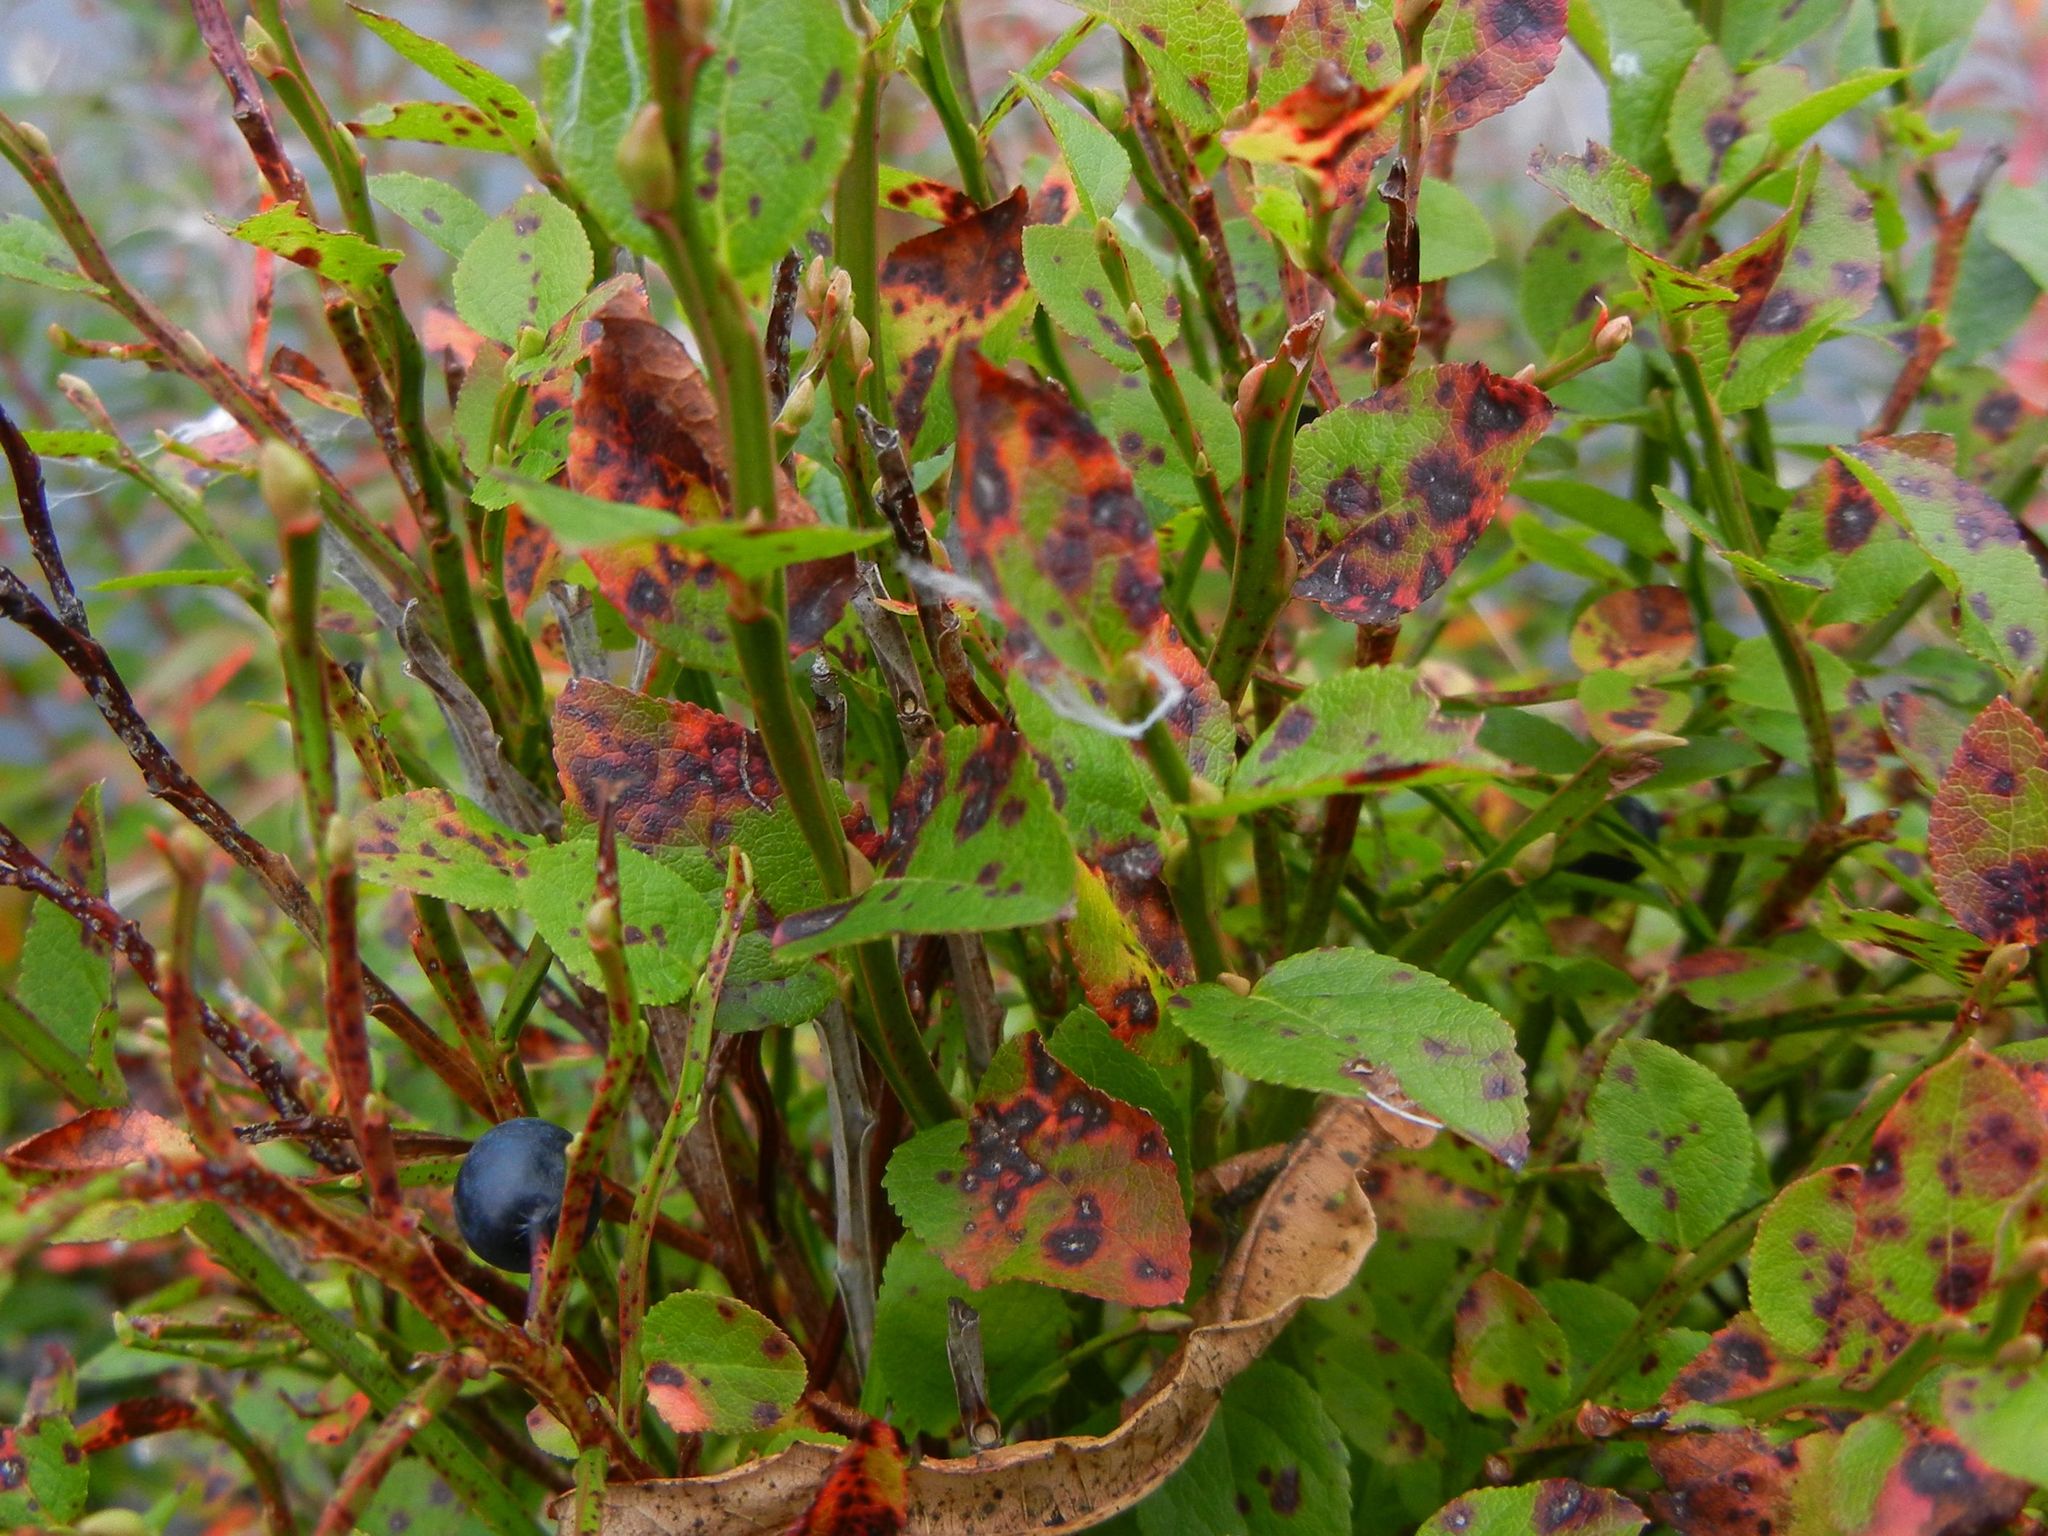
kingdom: Plantae
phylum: Tracheophyta
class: Magnoliopsida
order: Ericales
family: Ericaceae
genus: Vaccinium
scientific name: Vaccinium myrtillus
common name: Bilberry
